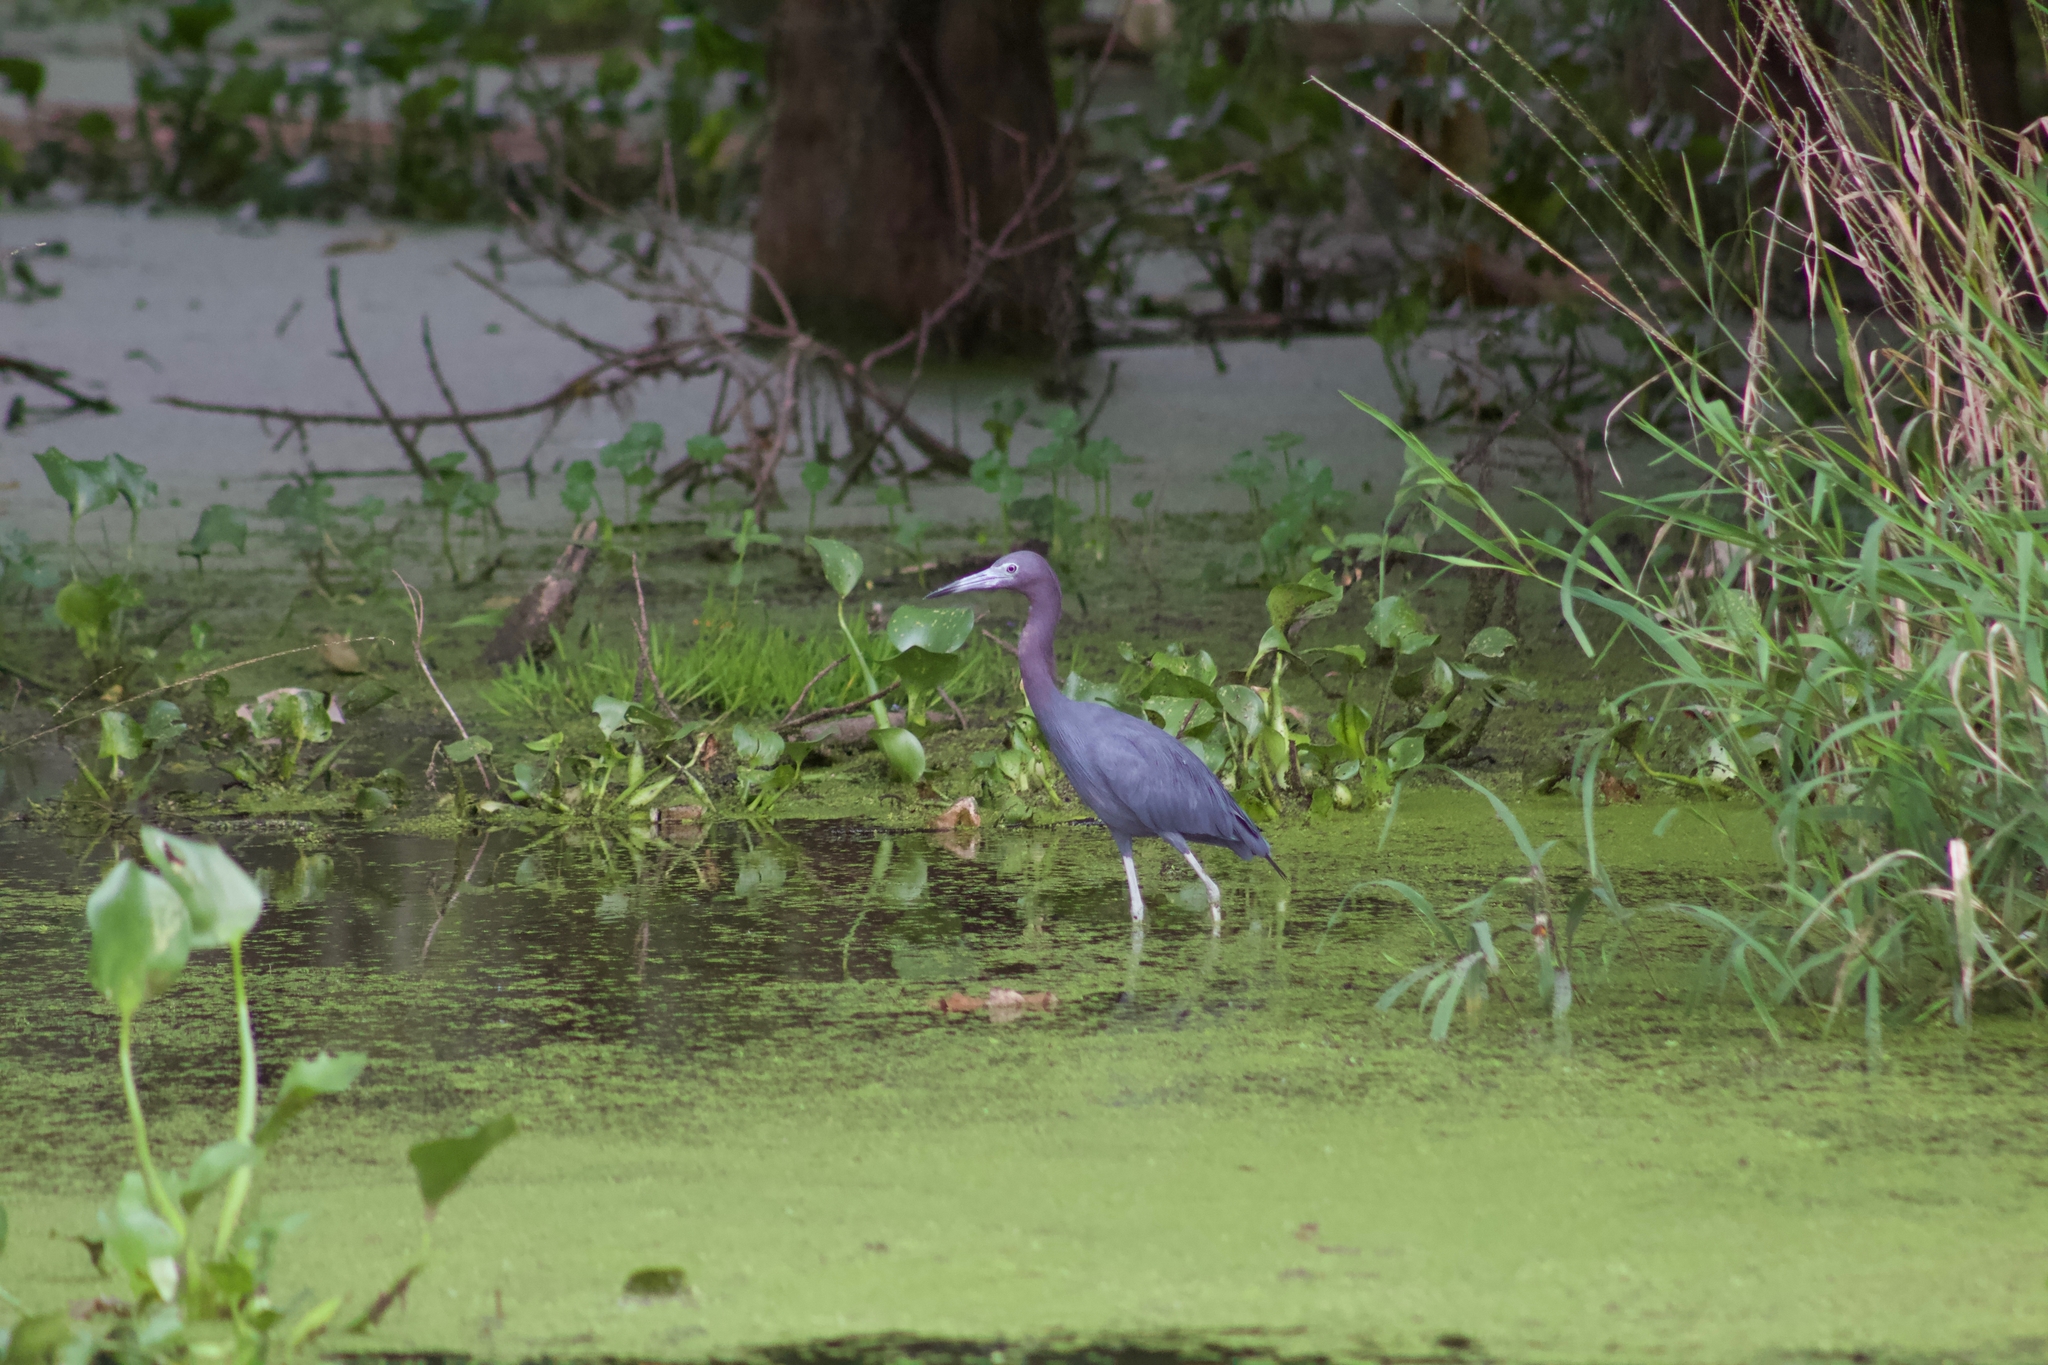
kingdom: Animalia
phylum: Chordata
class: Aves
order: Pelecaniformes
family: Ardeidae
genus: Egretta
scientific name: Egretta caerulea
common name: Little blue heron
